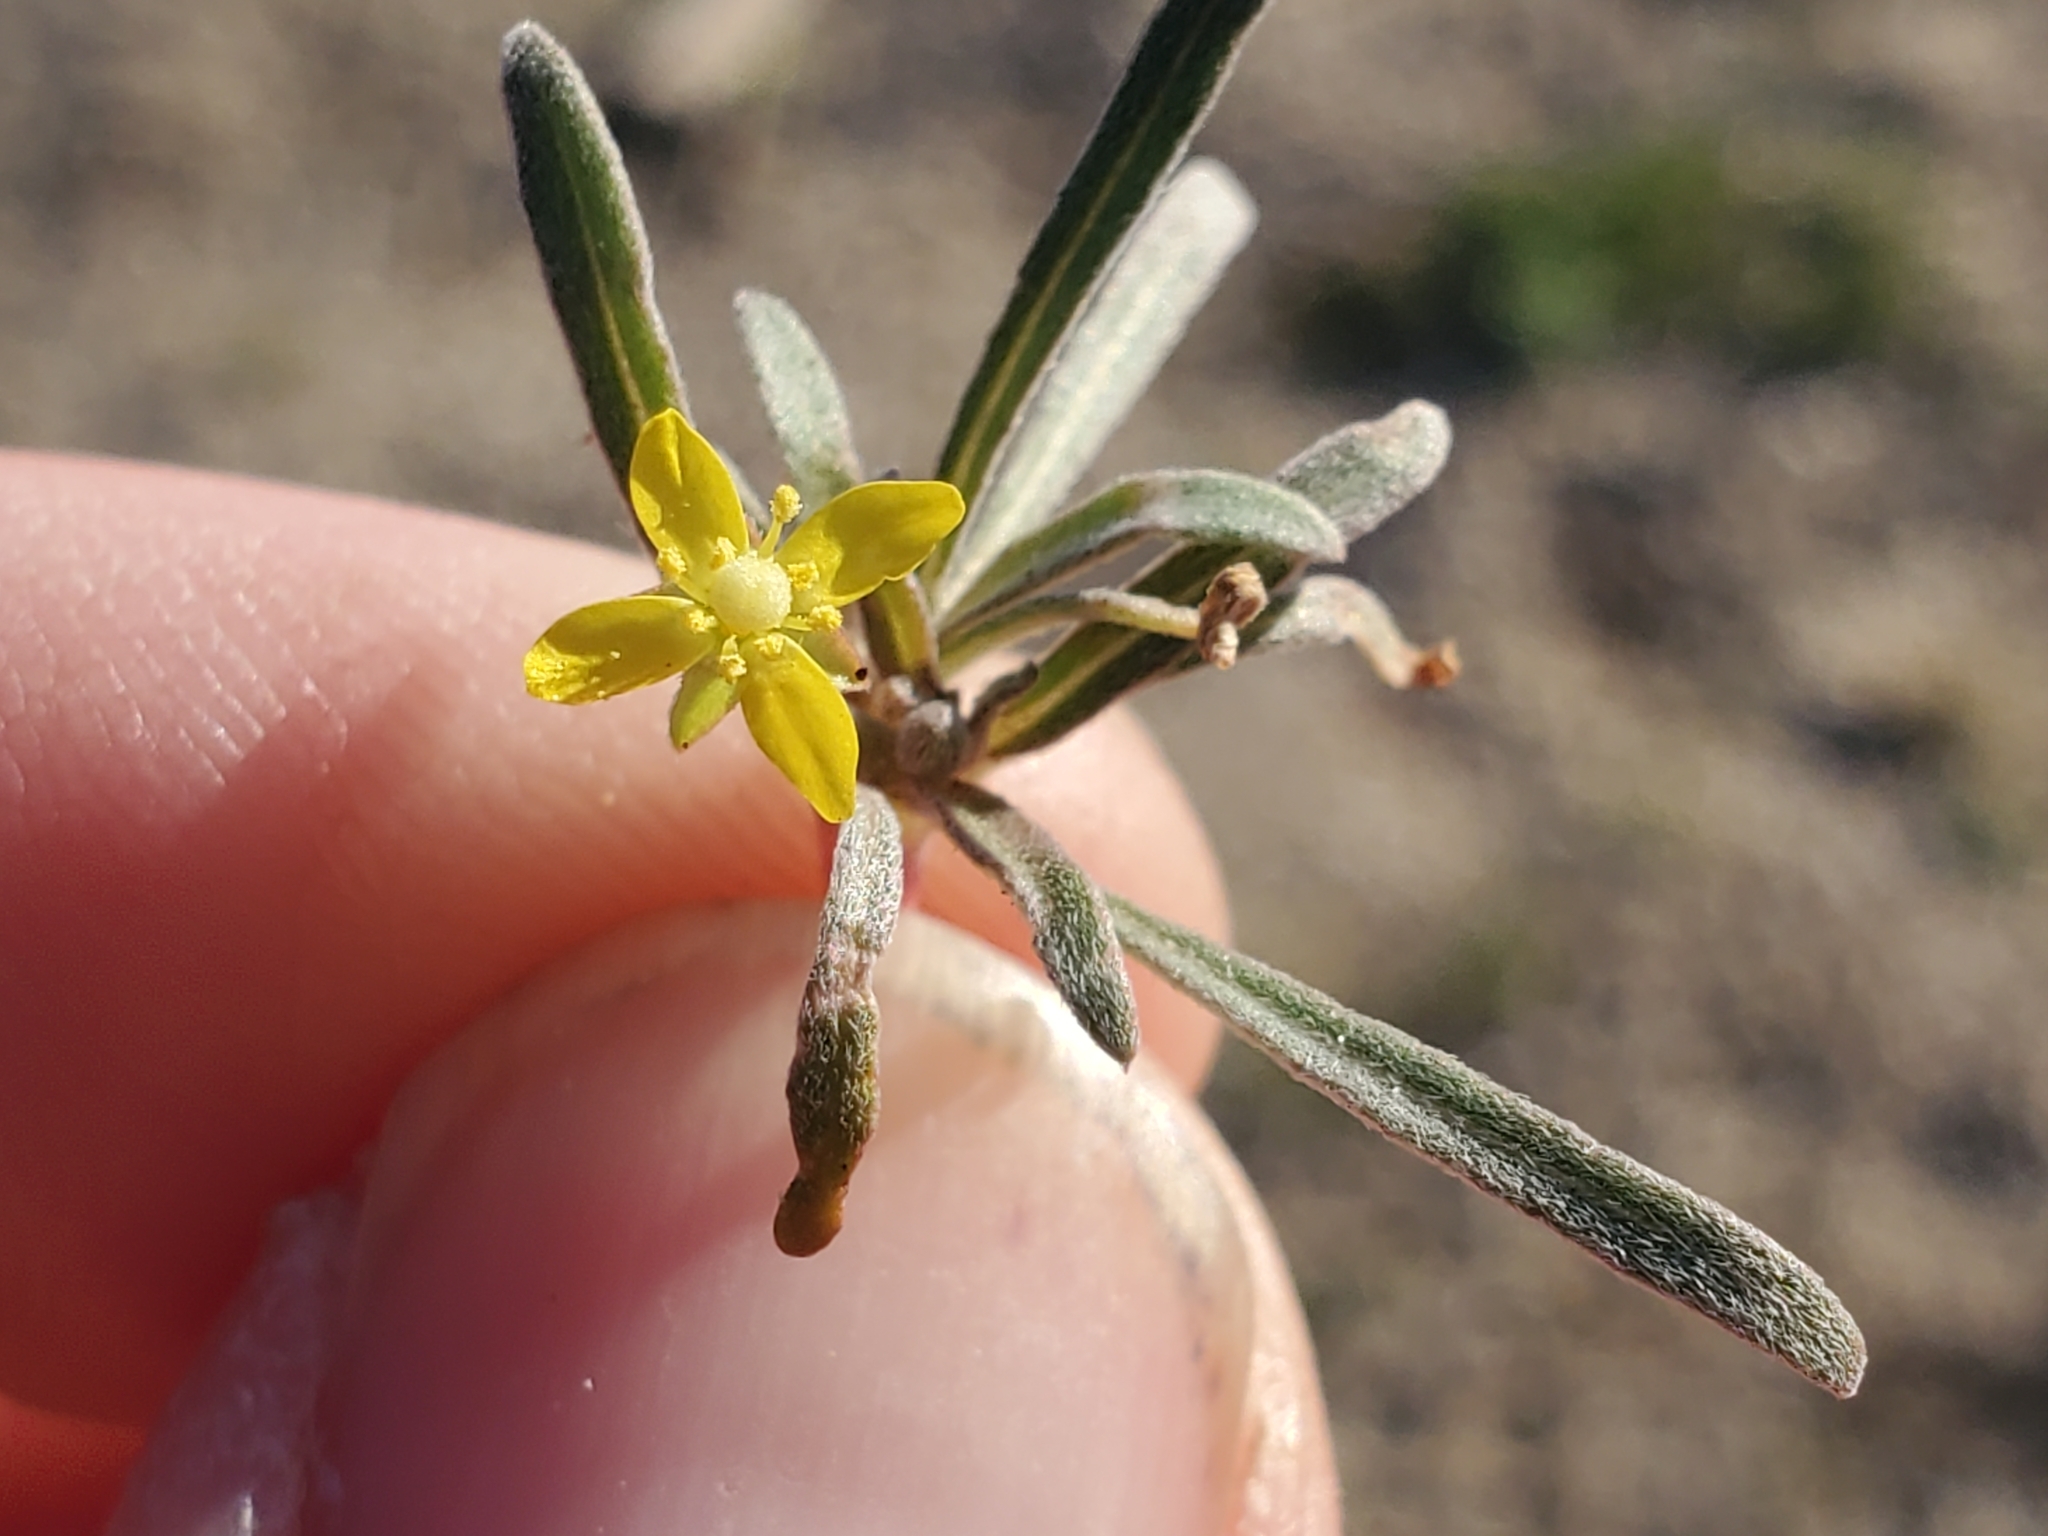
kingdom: Plantae
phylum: Tracheophyta
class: Magnoliopsida
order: Myrtales
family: Onagraceae
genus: Camissoniopsis
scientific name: Camissoniopsis pallida
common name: Paleyellow suncup
